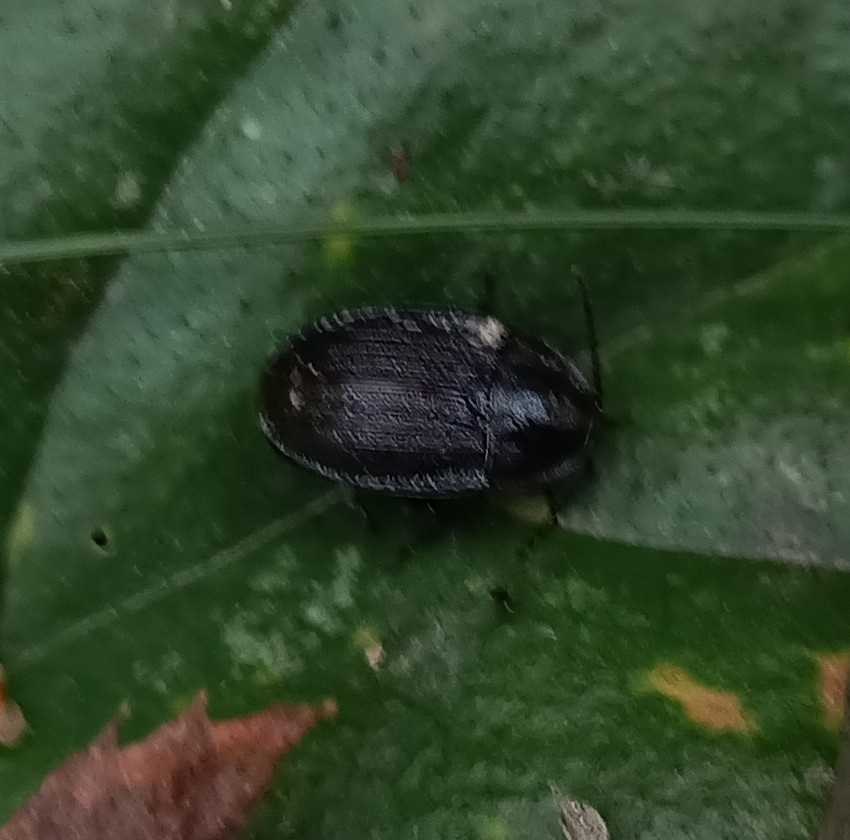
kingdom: Animalia
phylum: Arthropoda
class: Insecta
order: Coleoptera
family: Staphylinidae
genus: Silpha
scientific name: Silpha atrata
